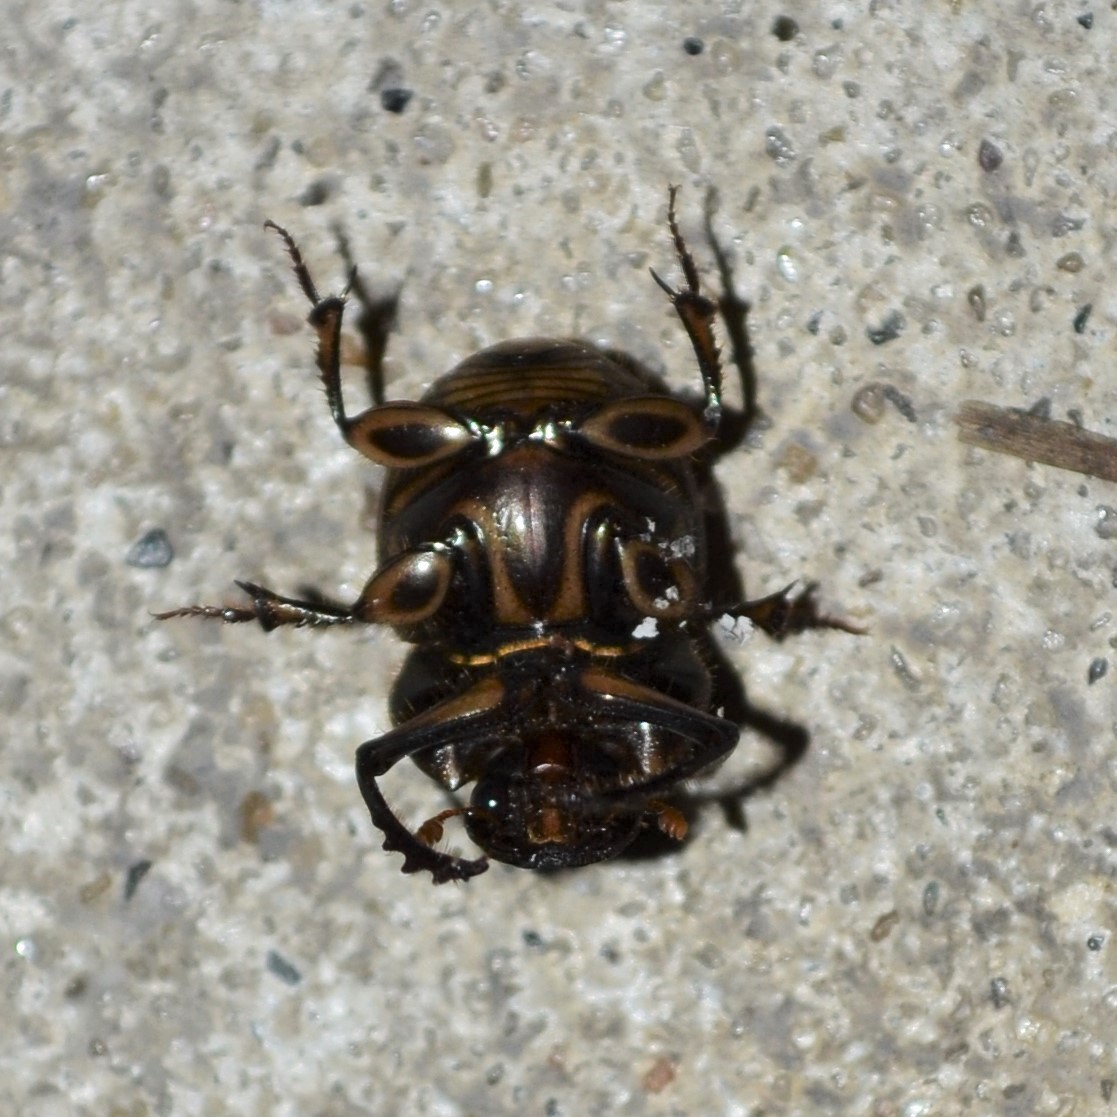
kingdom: Animalia
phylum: Arthropoda
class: Insecta
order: Coleoptera
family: Scarabaeidae
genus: Digitonthophagus
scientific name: Digitonthophagus gazella
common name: Brown dung beetle
